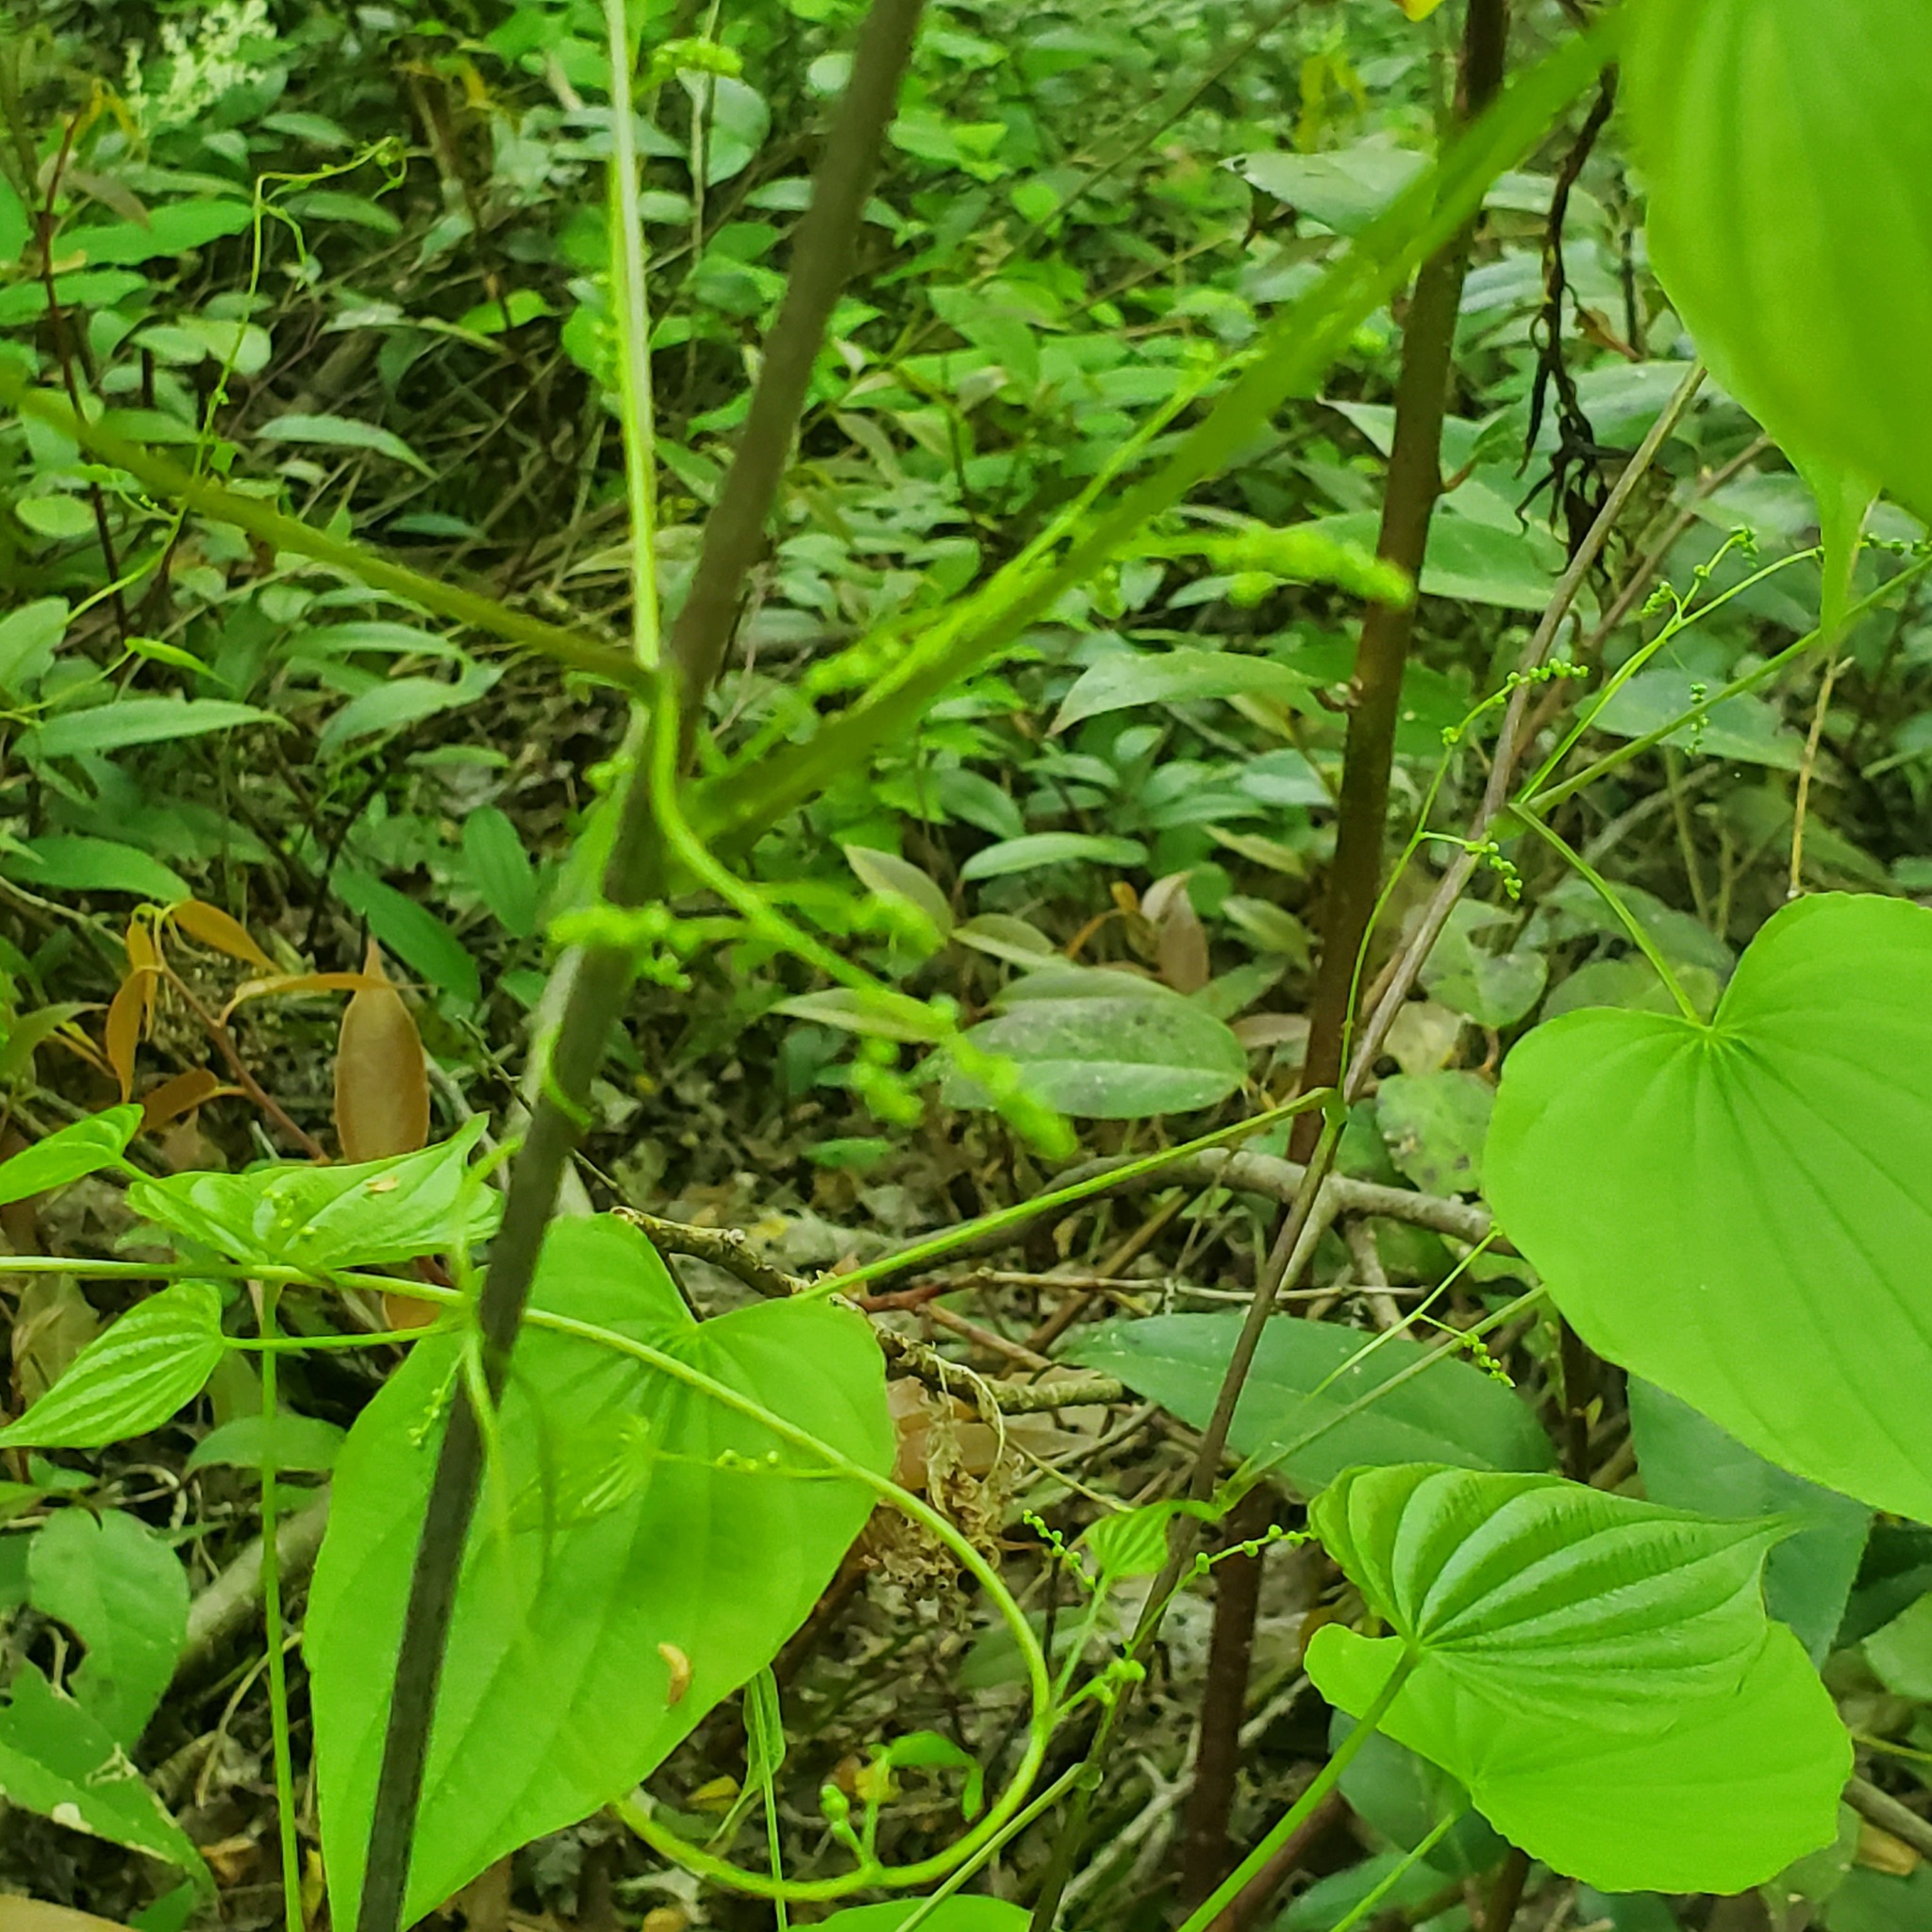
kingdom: Plantae
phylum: Tracheophyta
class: Liliopsida
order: Dioscoreales
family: Dioscoreaceae
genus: Dioscorea
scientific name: Dioscorea villosa
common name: Wild yam
